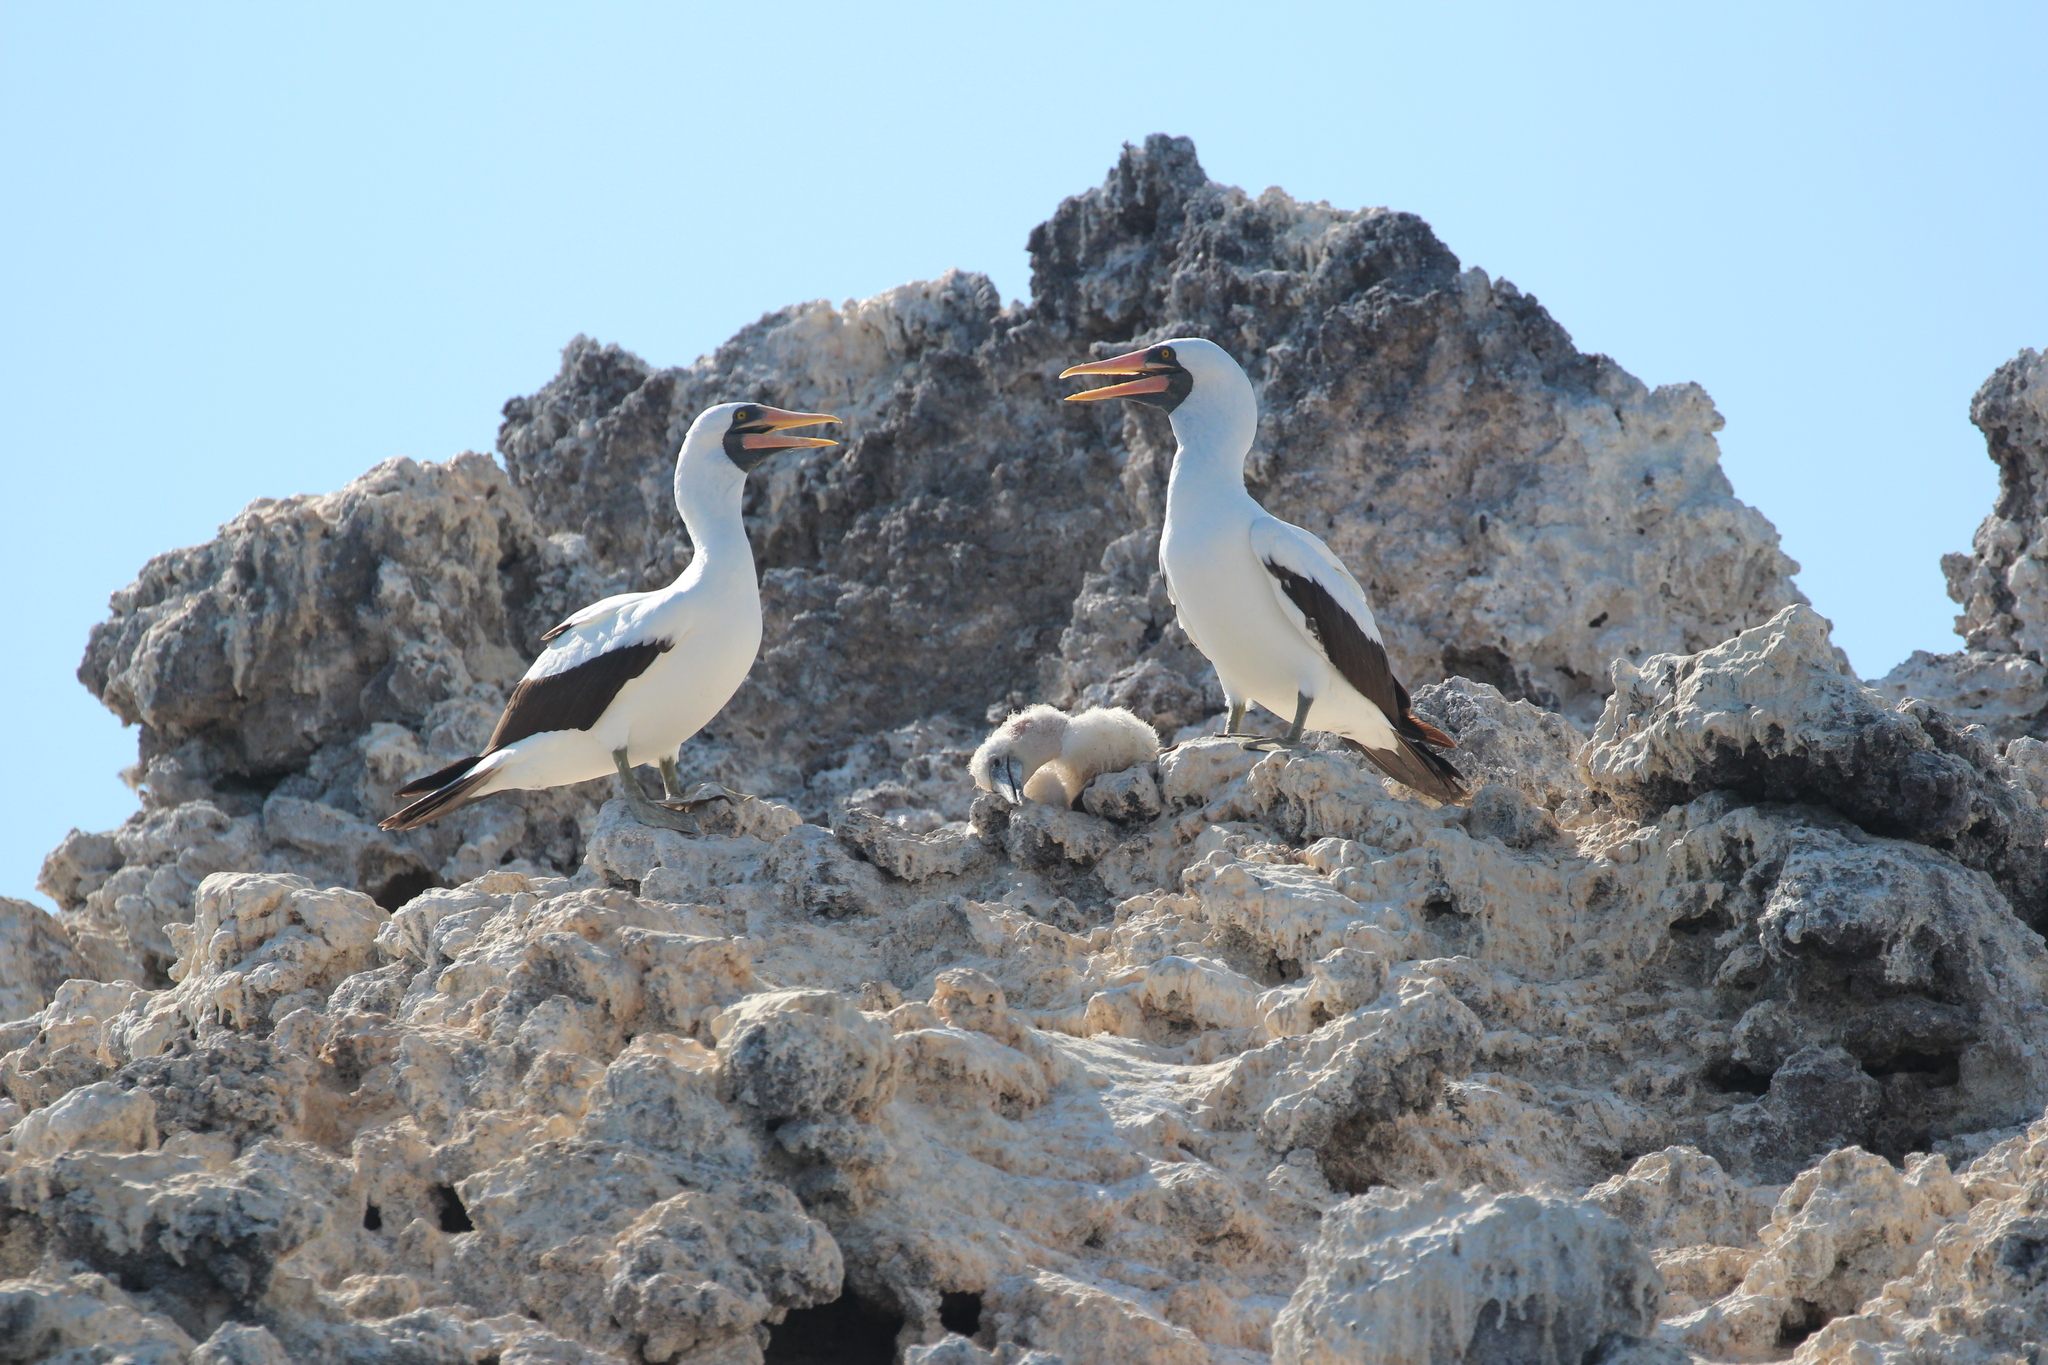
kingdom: Animalia
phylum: Chordata
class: Aves
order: Suliformes
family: Sulidae
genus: Sula
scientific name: Sula granti
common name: Nazca booby
